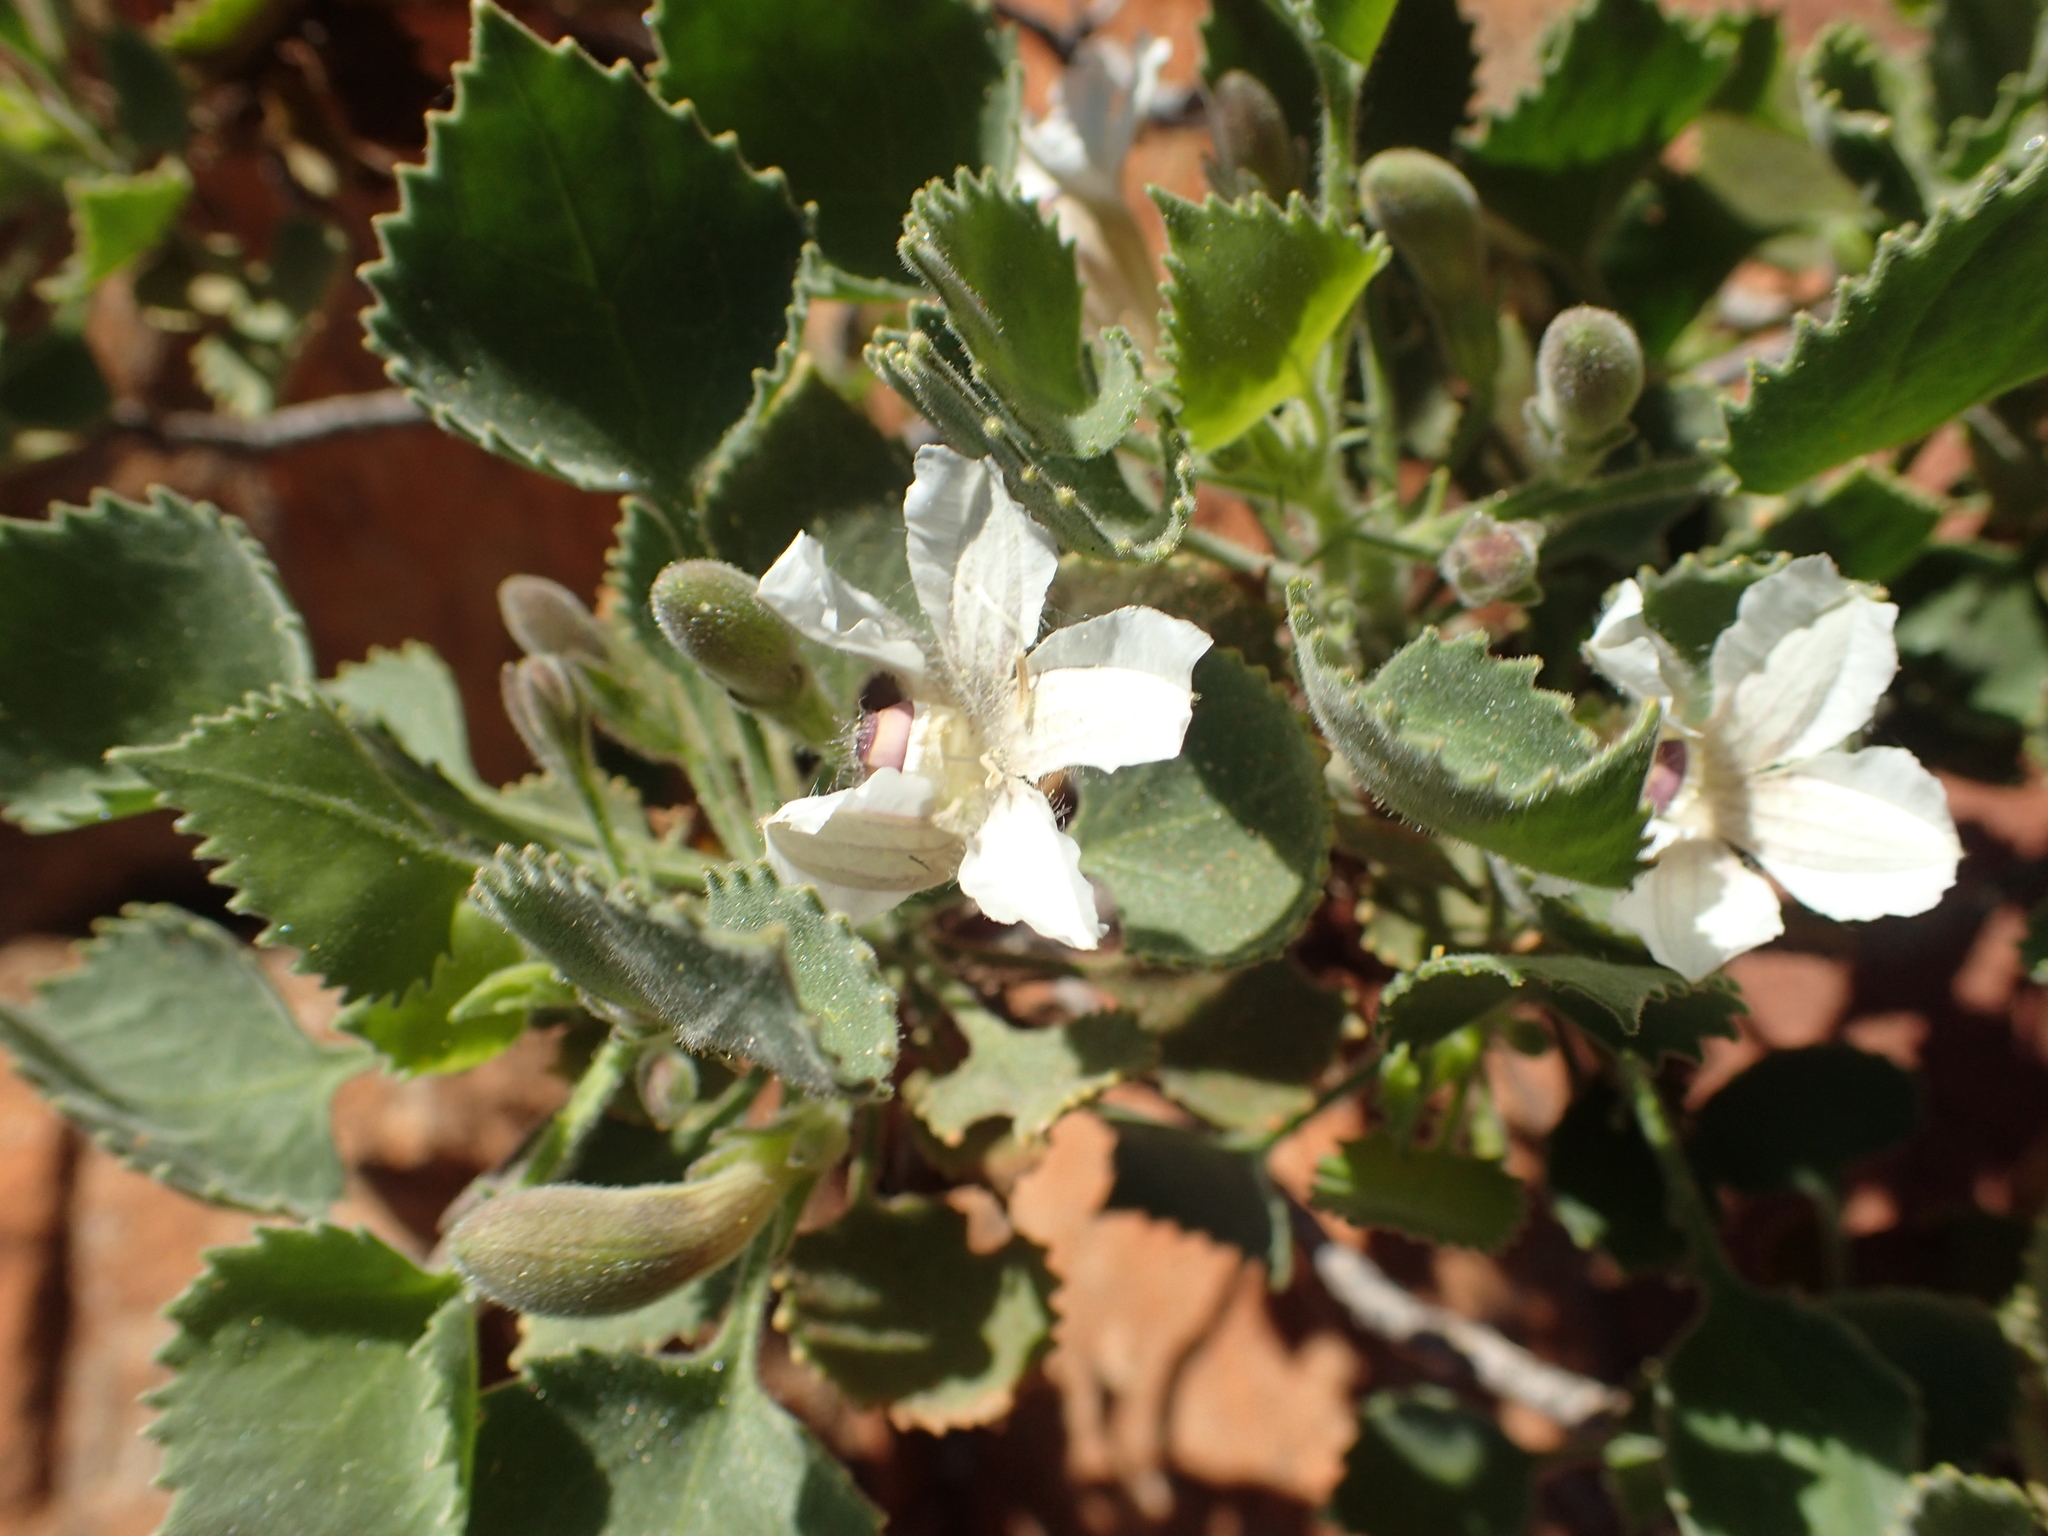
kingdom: Plantae
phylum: Tracheophyta
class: Magnoliopsida
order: Asterales
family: Goodeniaceae
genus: Goodenia
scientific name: Goodenia grandiflora
